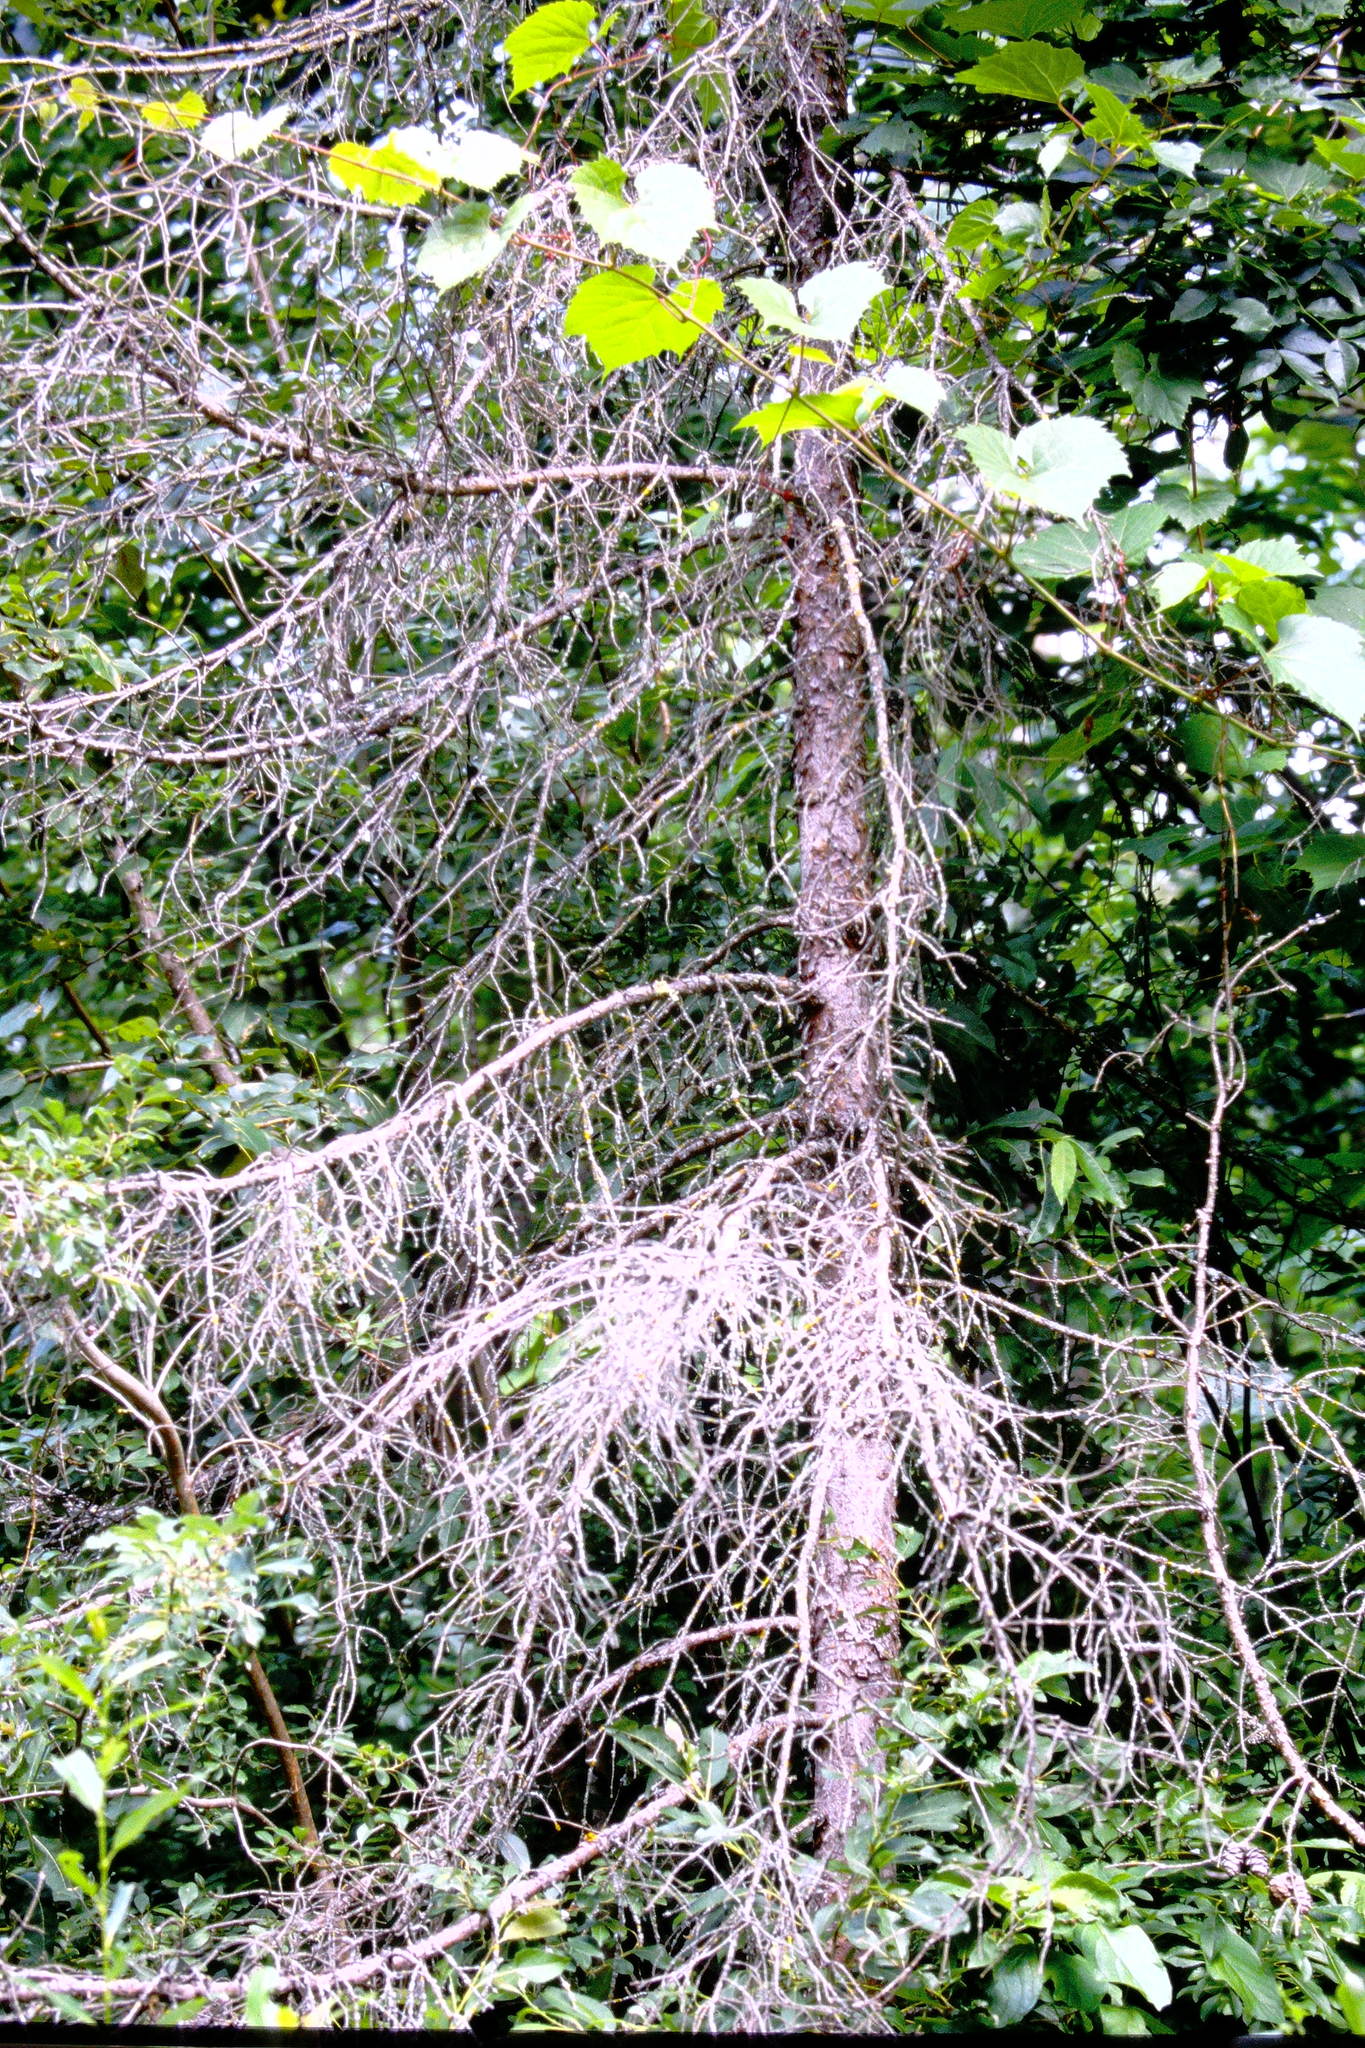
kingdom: Plantae
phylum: Tracheophyta
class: Magnoliopsida
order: Vitales
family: Vitaceae
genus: Vitis
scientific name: Vitis riparia
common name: Frost grape
